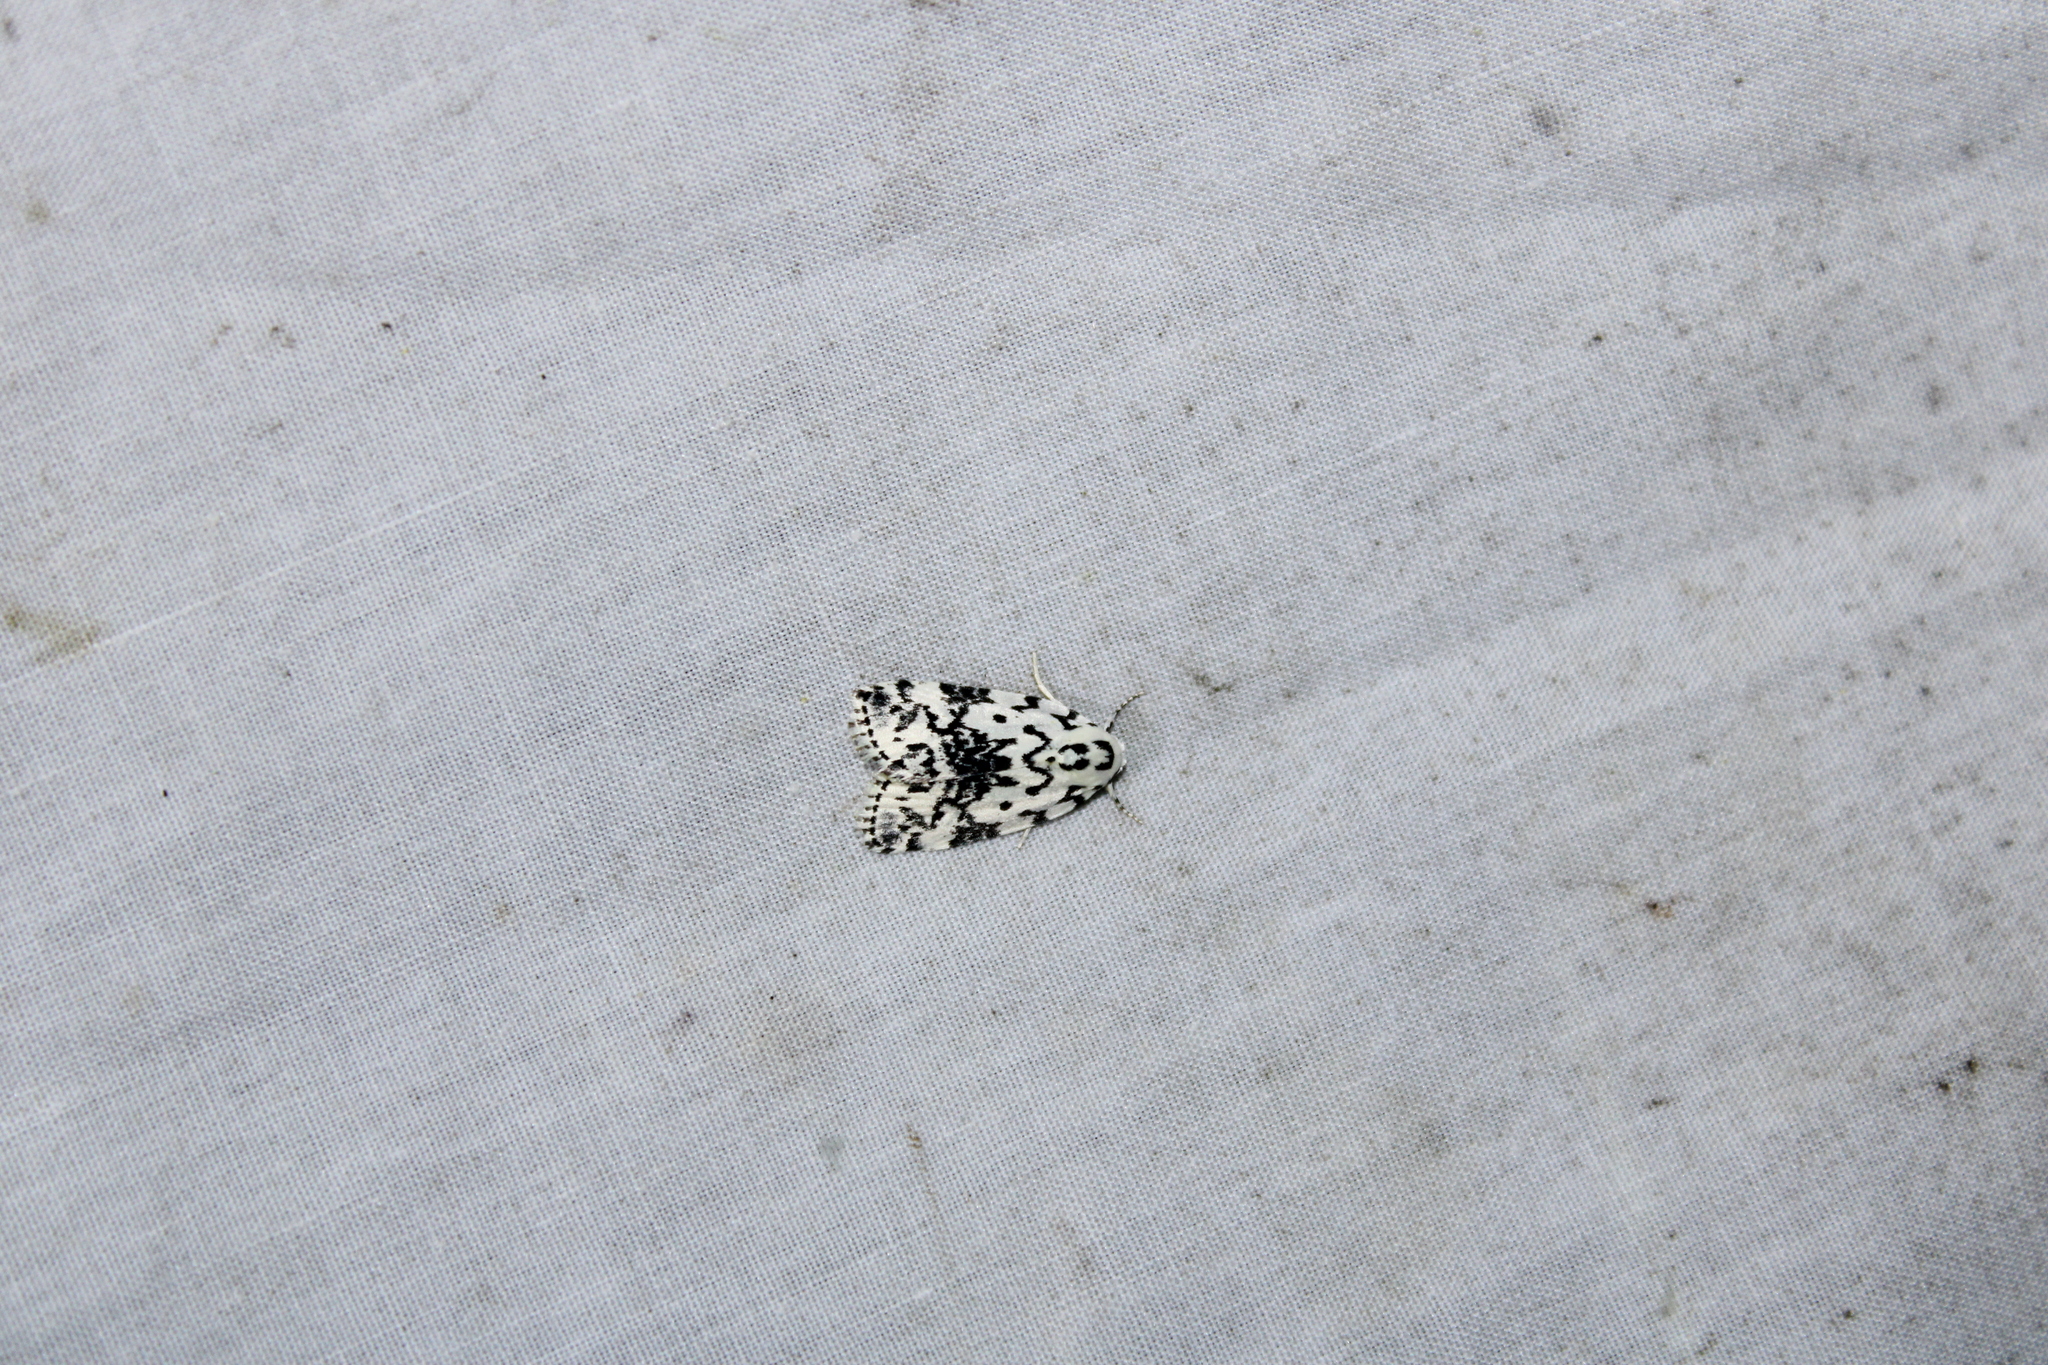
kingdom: Animalia
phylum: Arthropoda
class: Insecta
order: Lepidoptera
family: Noctuidae
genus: Polygrammate
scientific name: Polygrammate hebraeicum
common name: Hebrew moth
